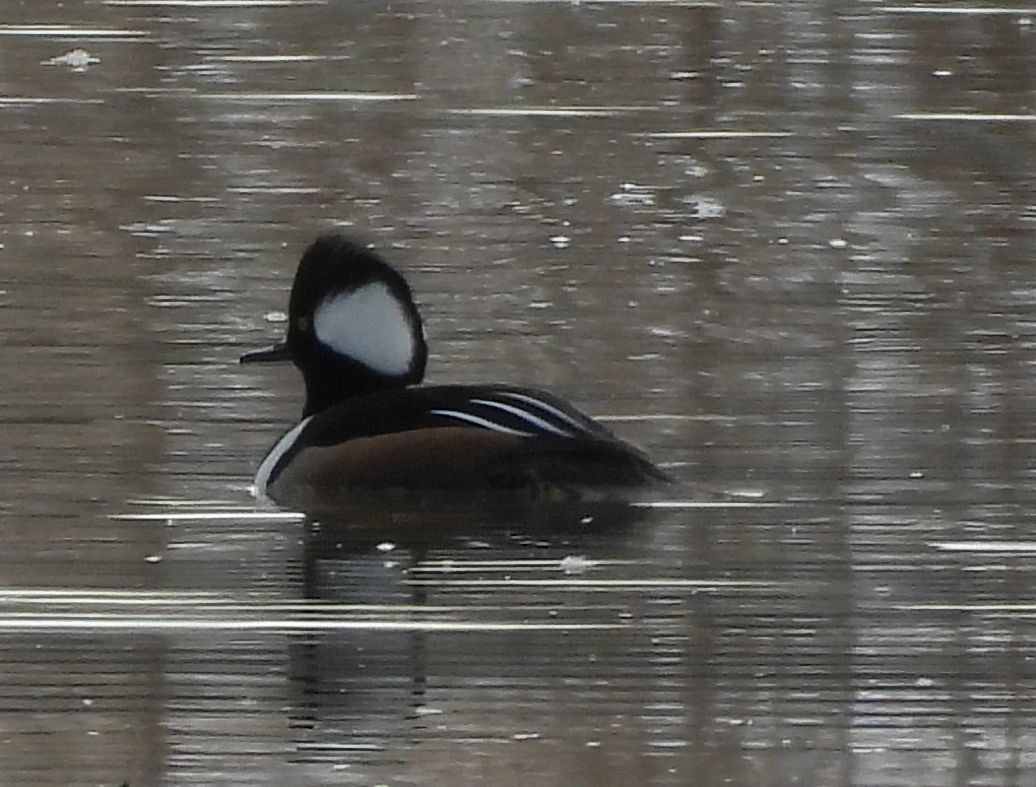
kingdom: Animalia
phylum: Chordata
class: Aves
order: Anseriformes
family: Anatidae
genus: Lophodytes
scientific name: Lophodytes cucullatus
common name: Hooded merganser
